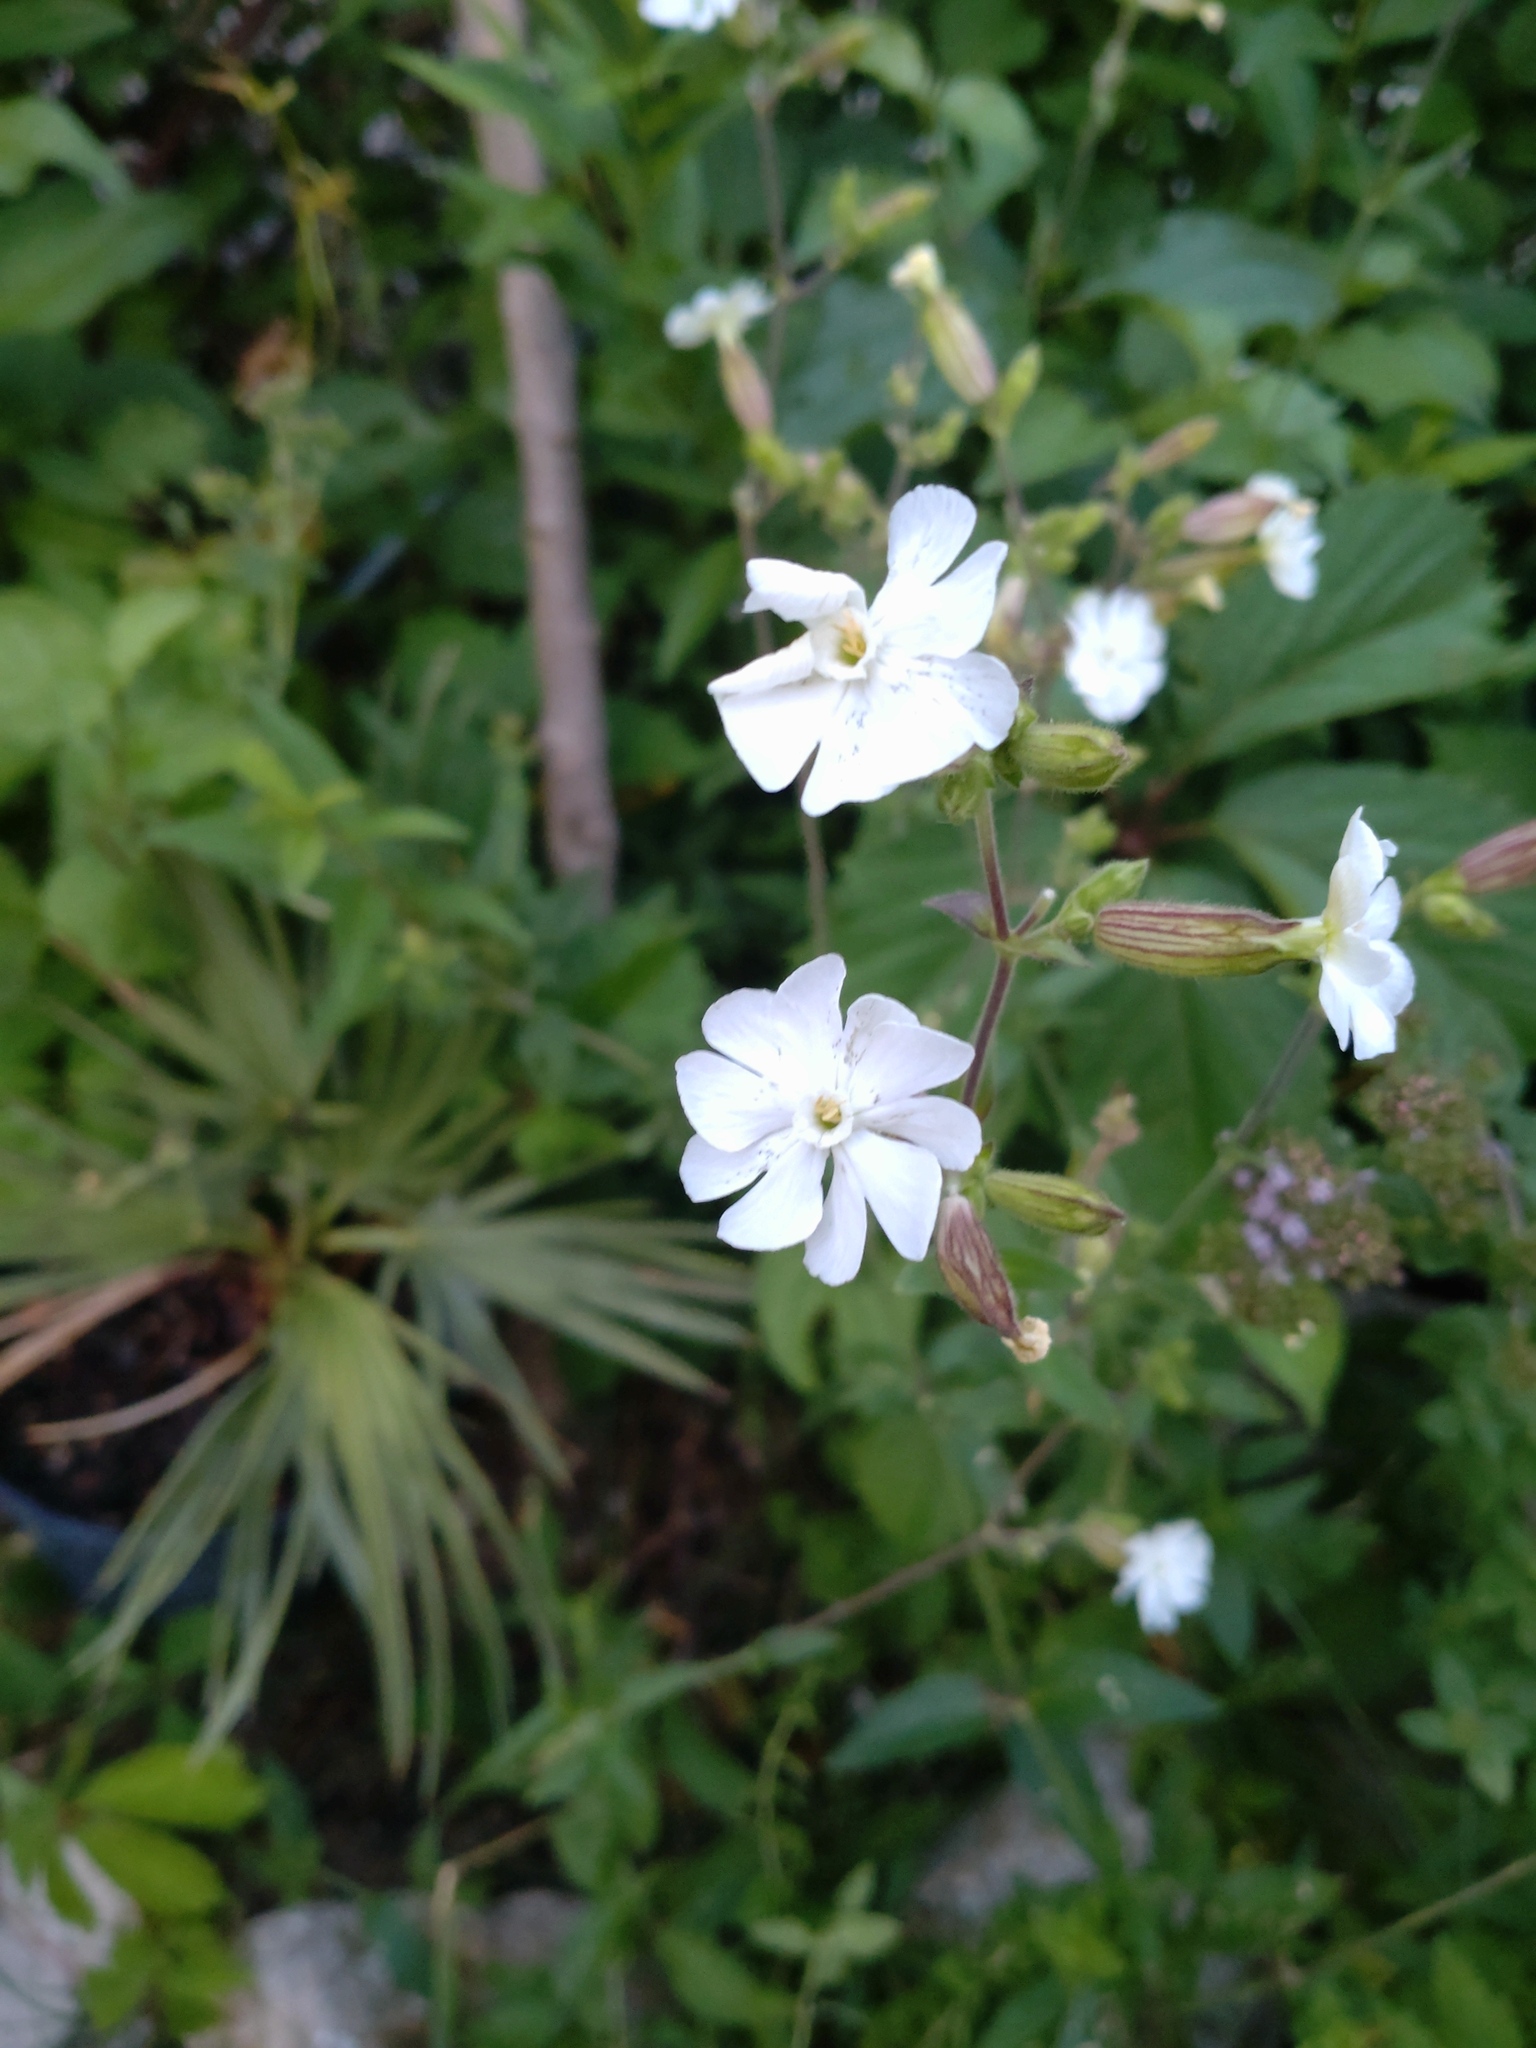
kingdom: Plantae
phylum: Tracheophyta
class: Magnoliopsida
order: Caryophyllales
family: Caryophyllaceae
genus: Silene
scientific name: Silene latifolia
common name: White campion
